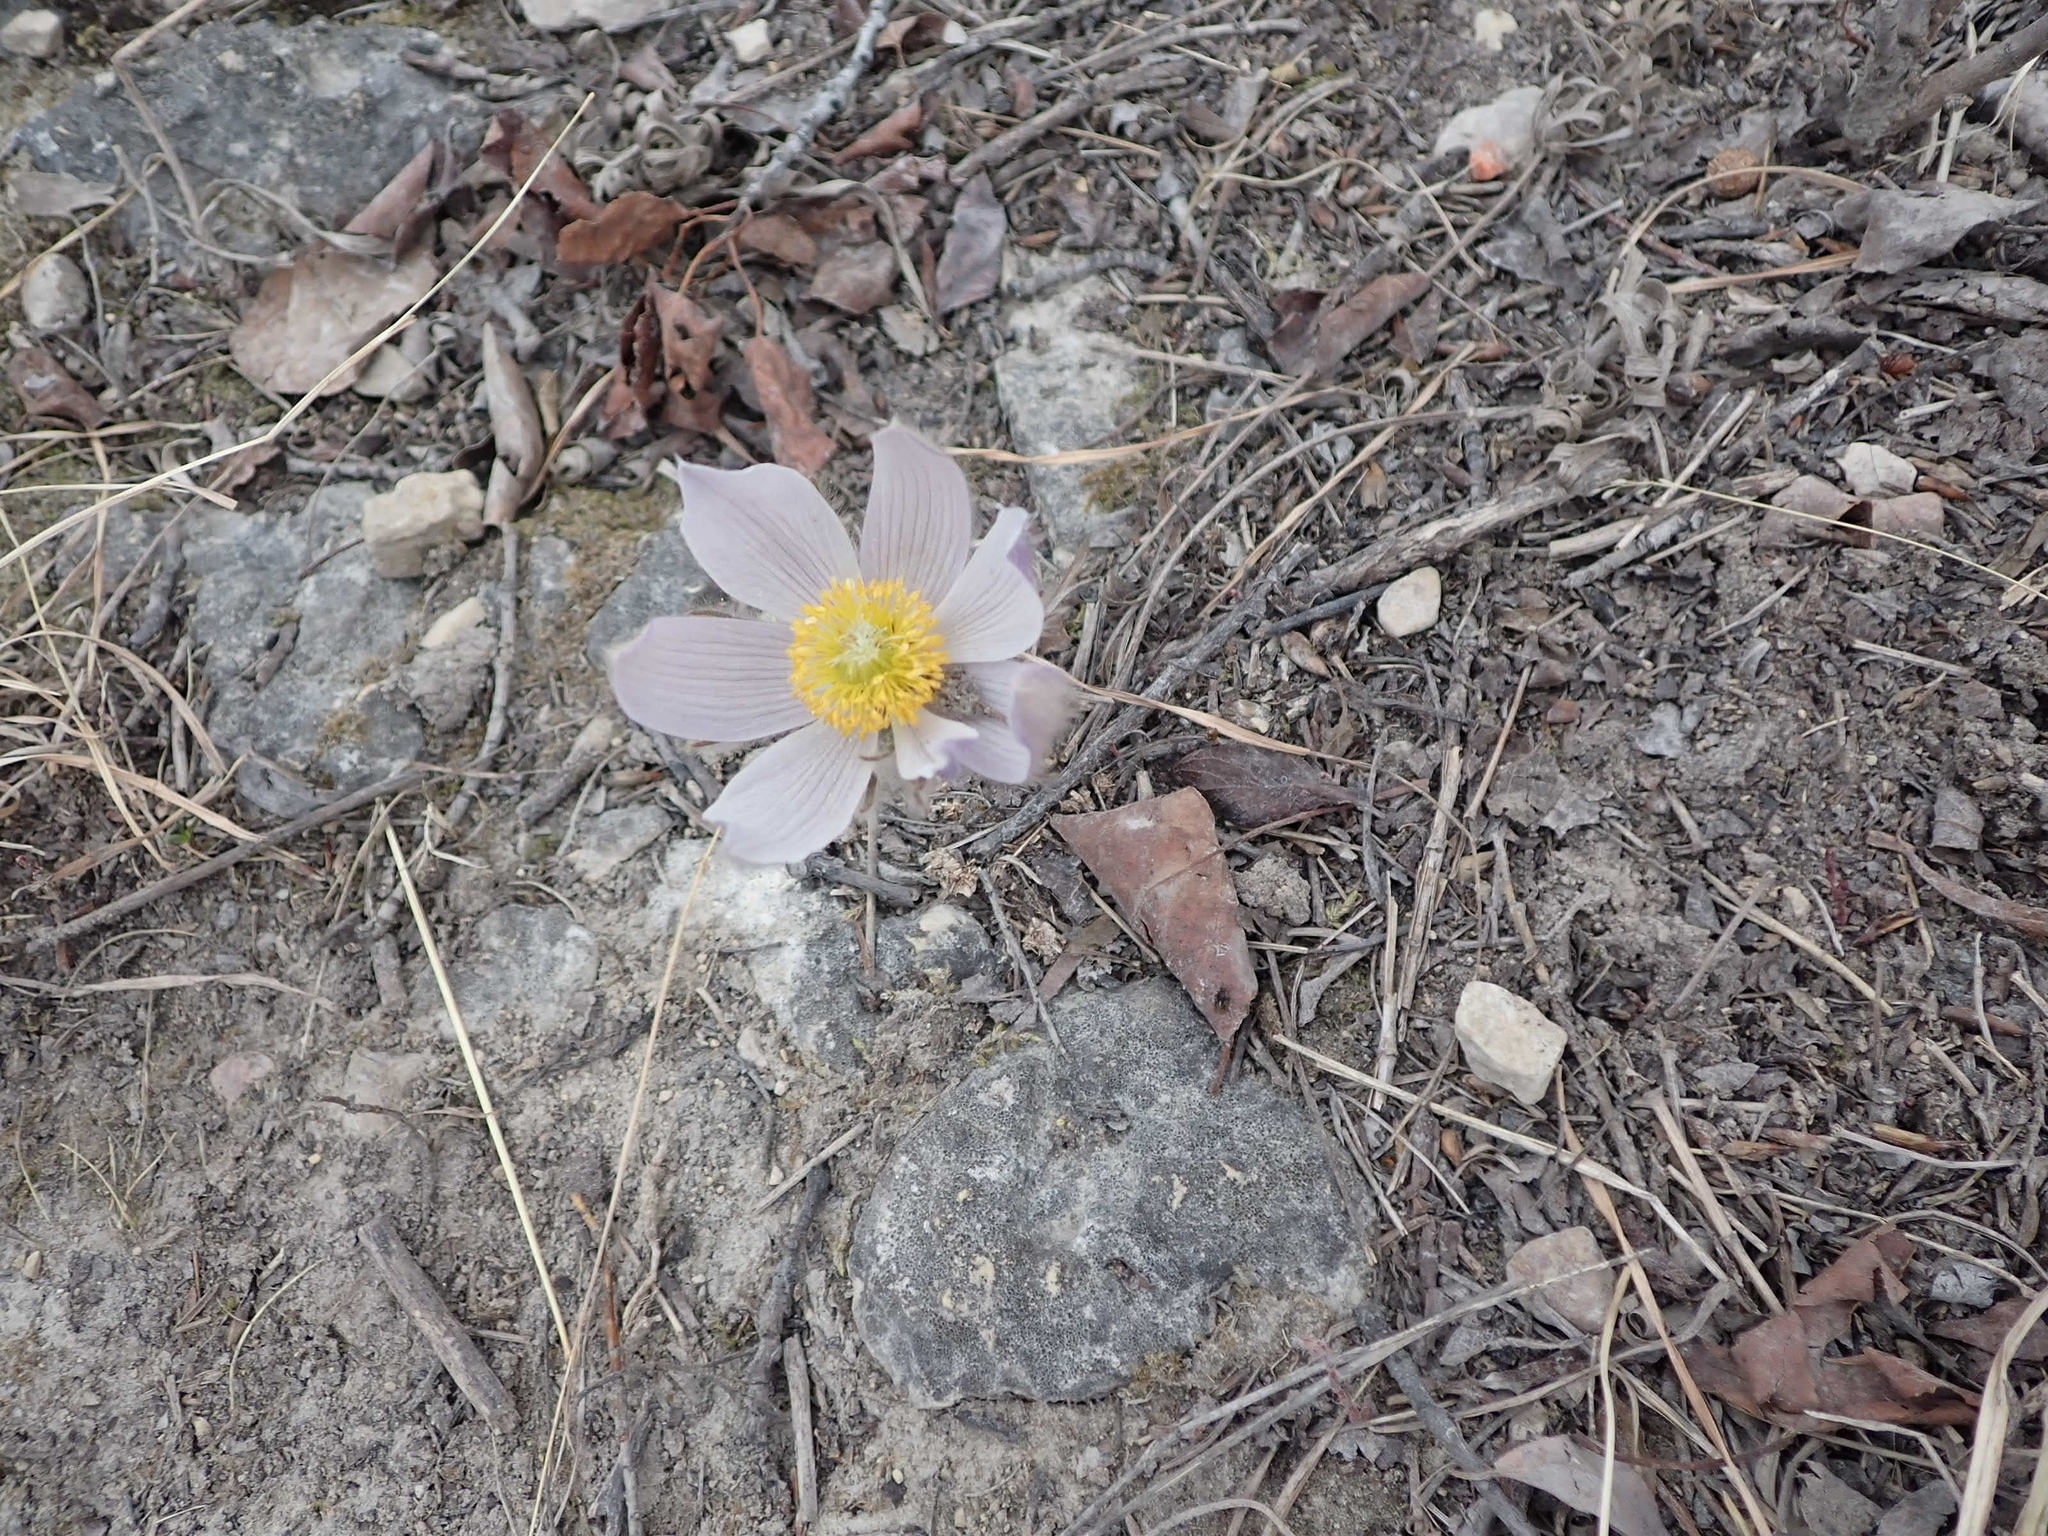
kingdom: Plantae
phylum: Tracheophyta
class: Magnoliopsida
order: Ranunculales
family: Ranunculaceae
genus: Pulsatilla
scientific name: Pulsatilla nuttalliana
